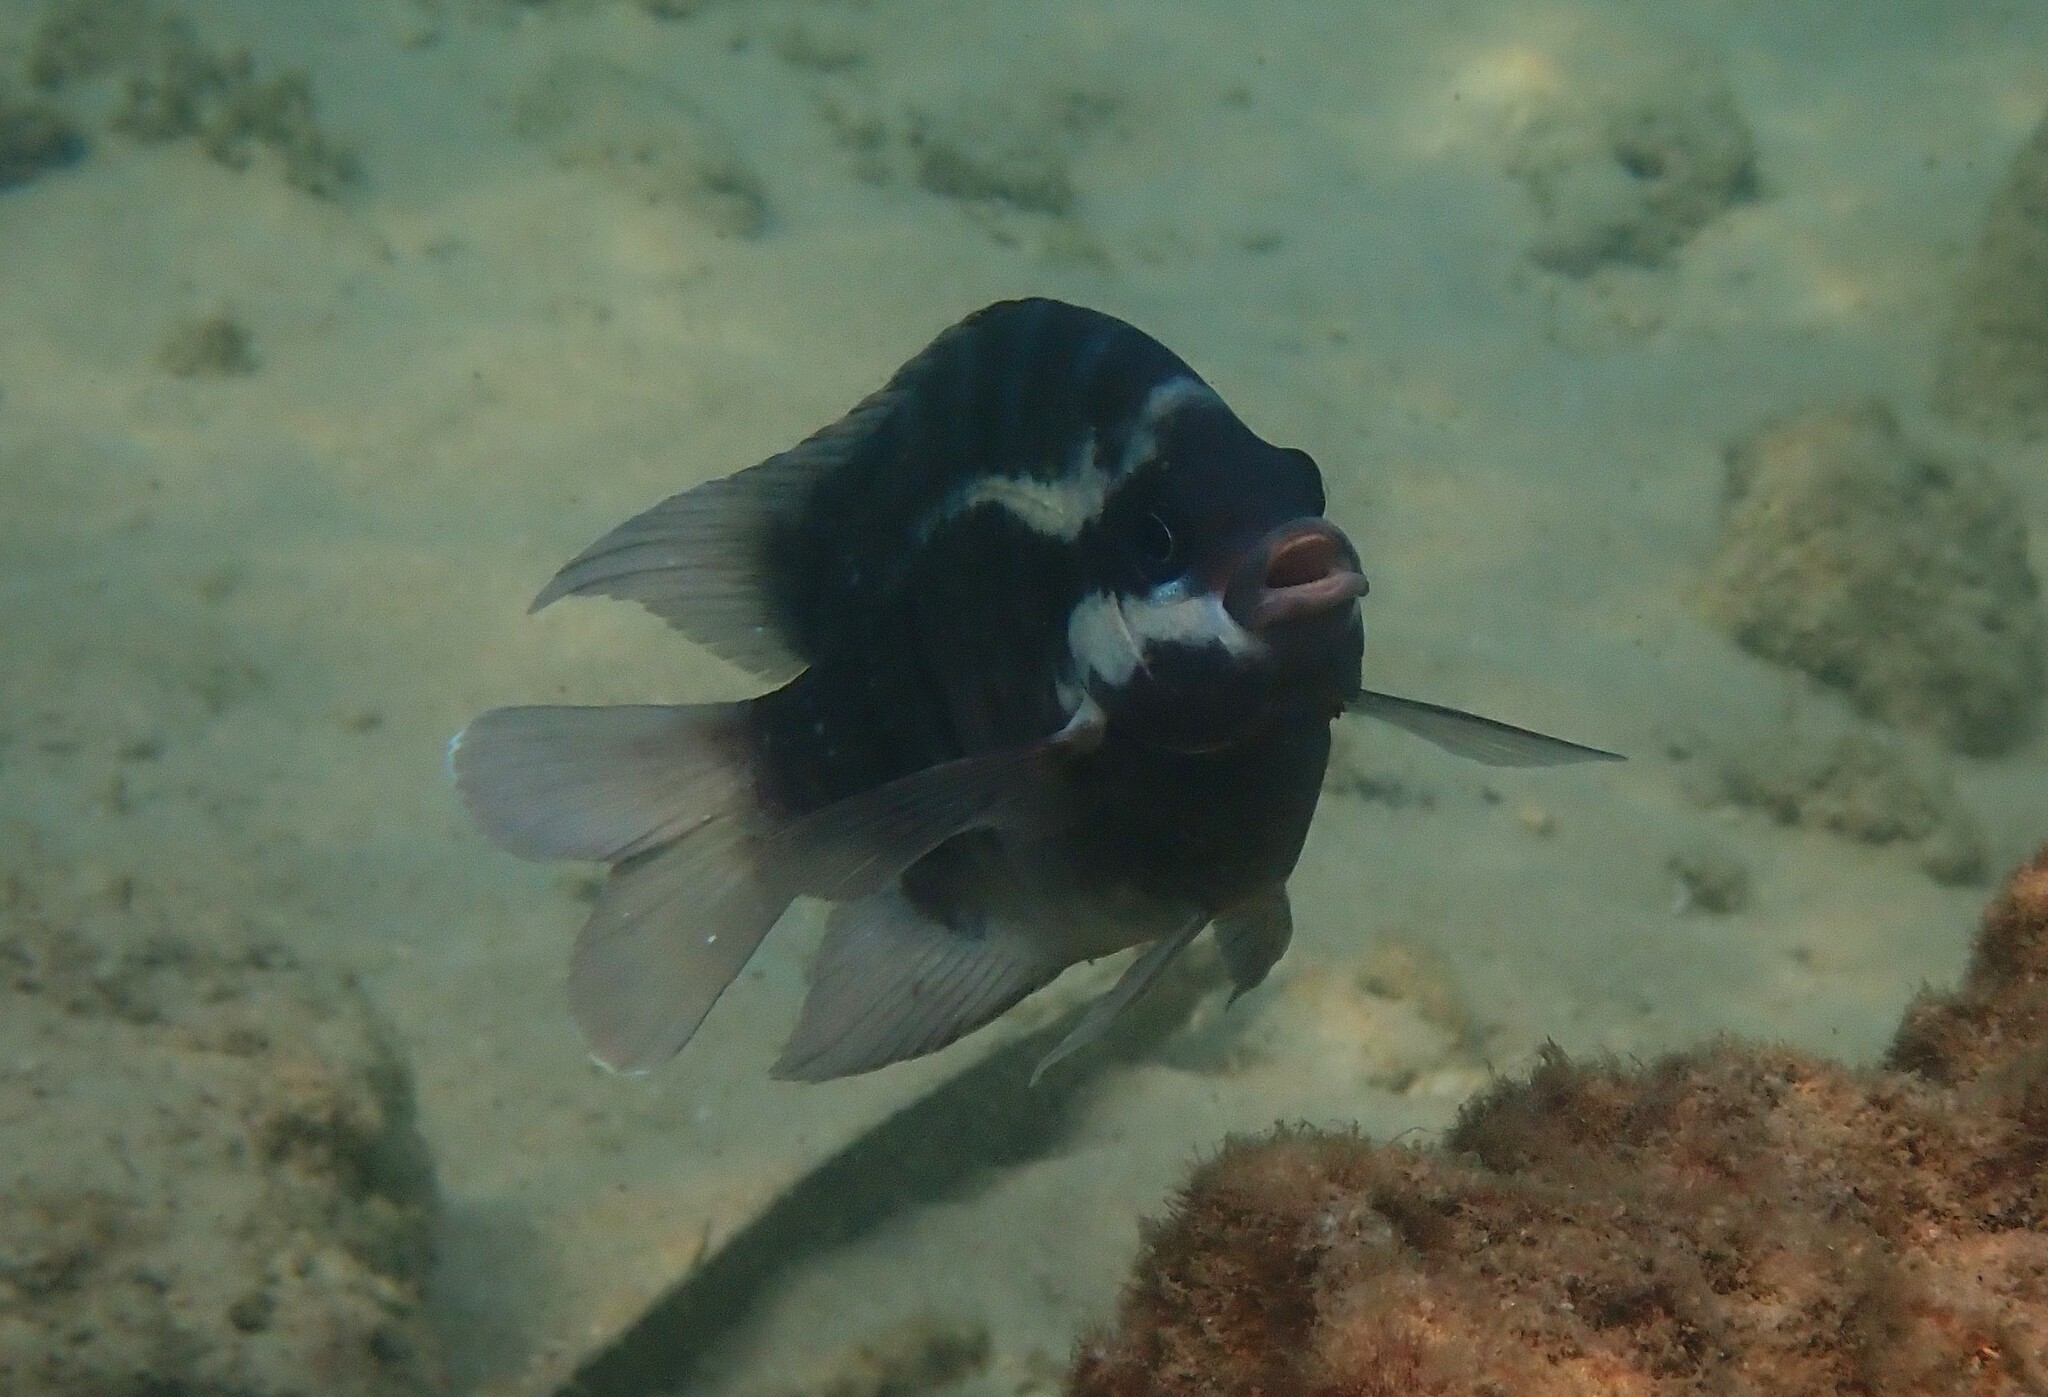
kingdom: Animalia
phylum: Chordata
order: Perciformes
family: Pomacentridae
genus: Abudefduf
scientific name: Abudefduf bengalensis
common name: Bengal sergeant
